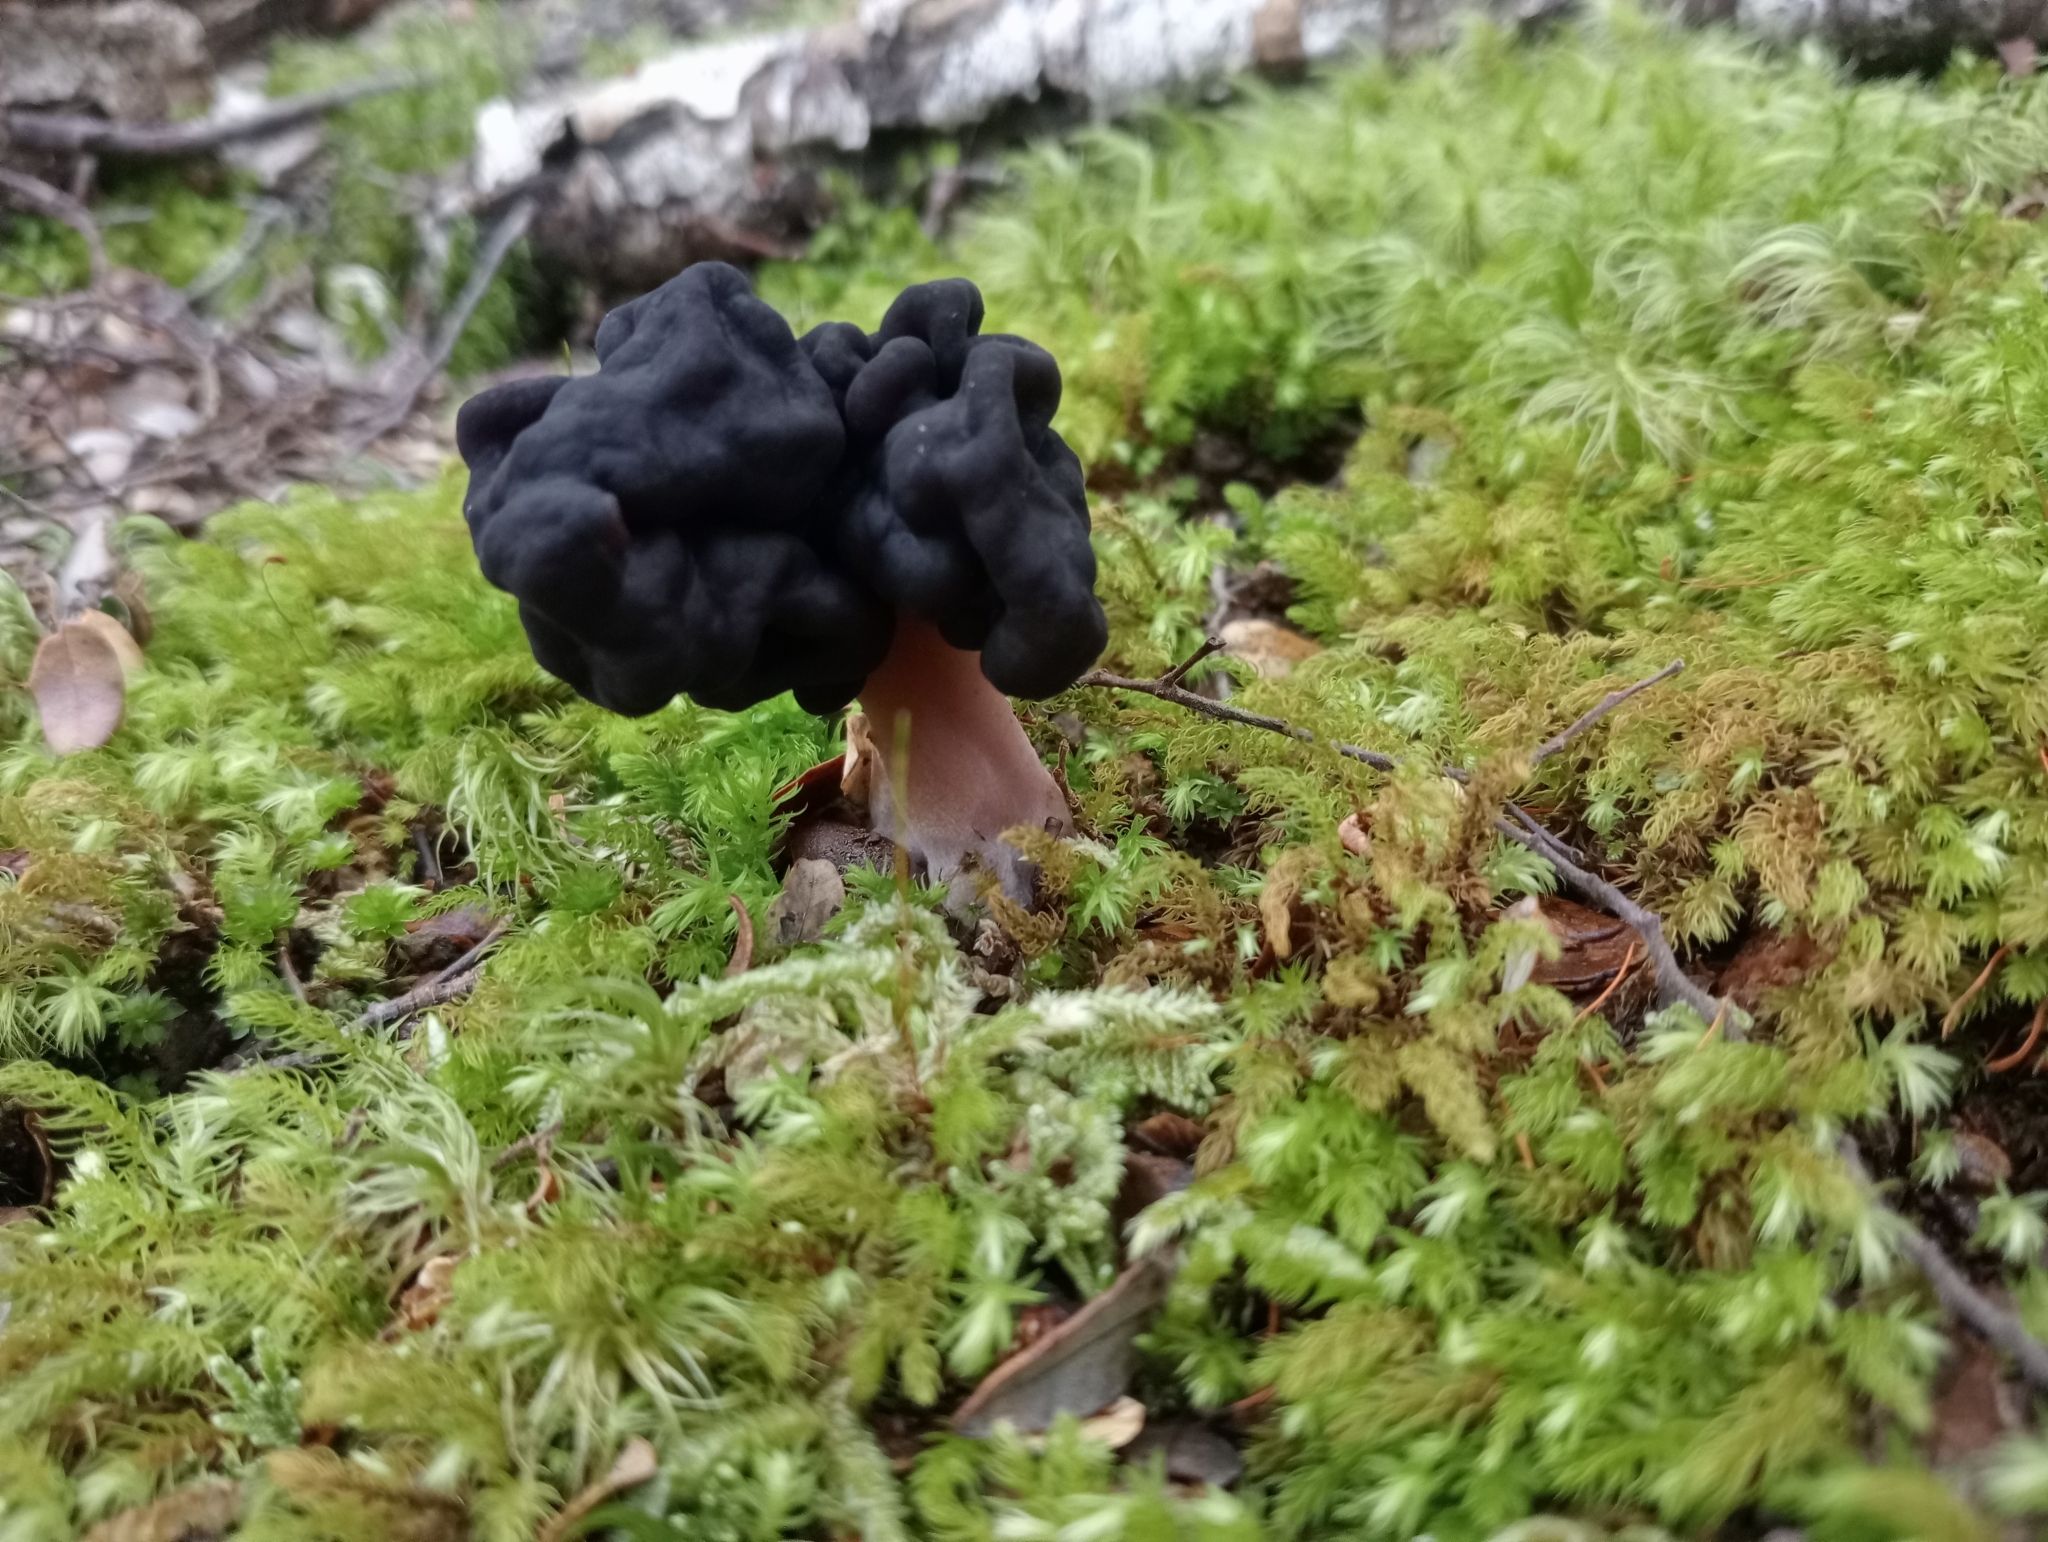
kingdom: Fungi
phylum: Ascomycota
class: Pezizomycetes
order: Pezizales
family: Discinaceae
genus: Gyromitra
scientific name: Gyromitra tasmanica
